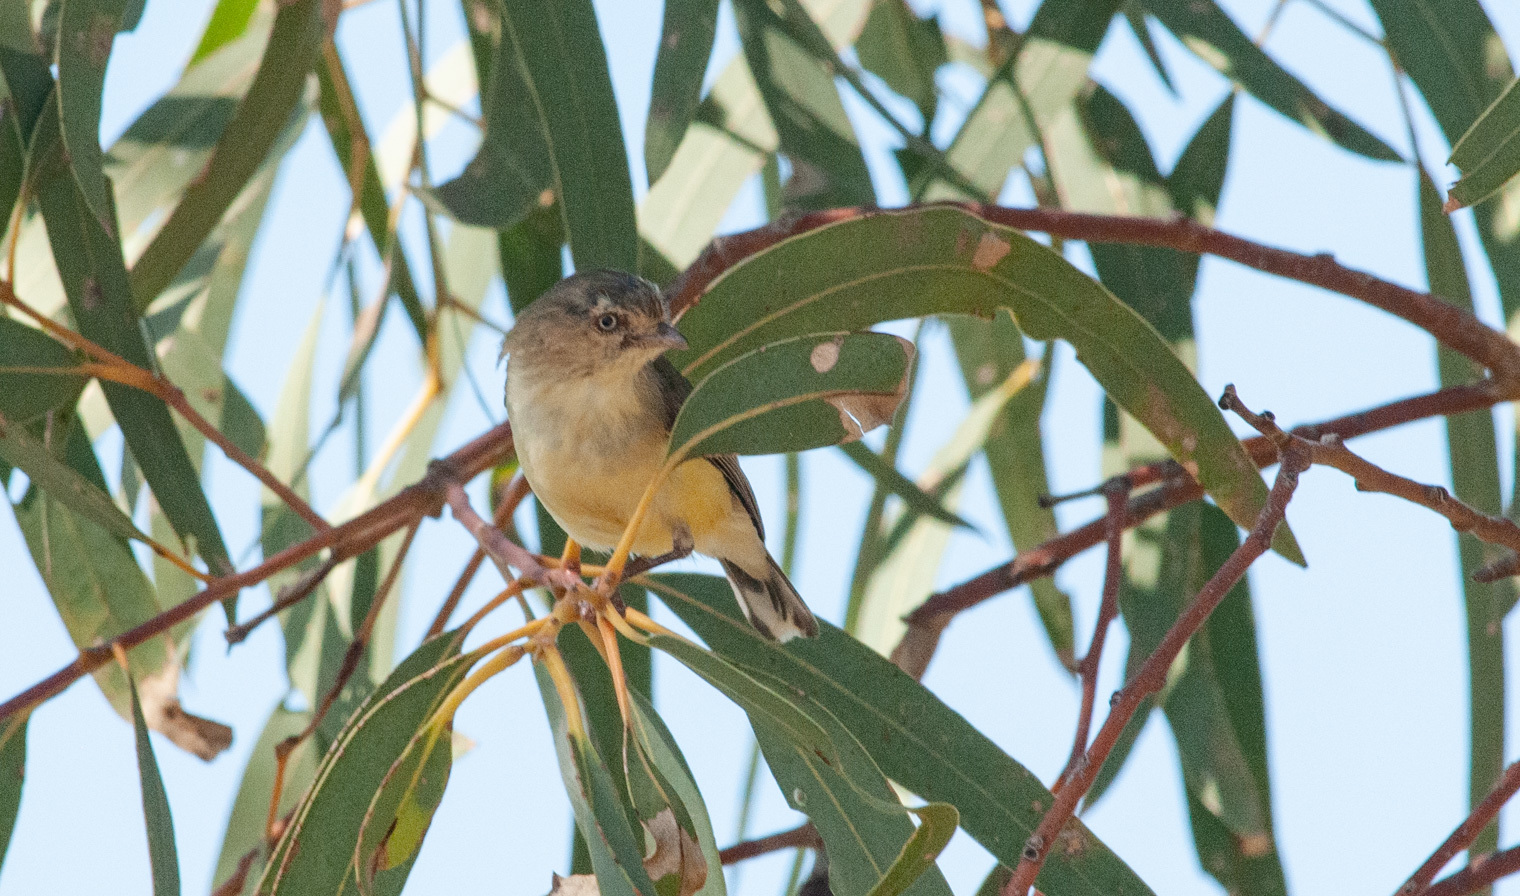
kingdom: Animalia
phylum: Chordata
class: Aves
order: Passeriformes
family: Acanthizidae
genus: Smicrornis
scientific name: Smicrornis brevirostris
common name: Weebill
